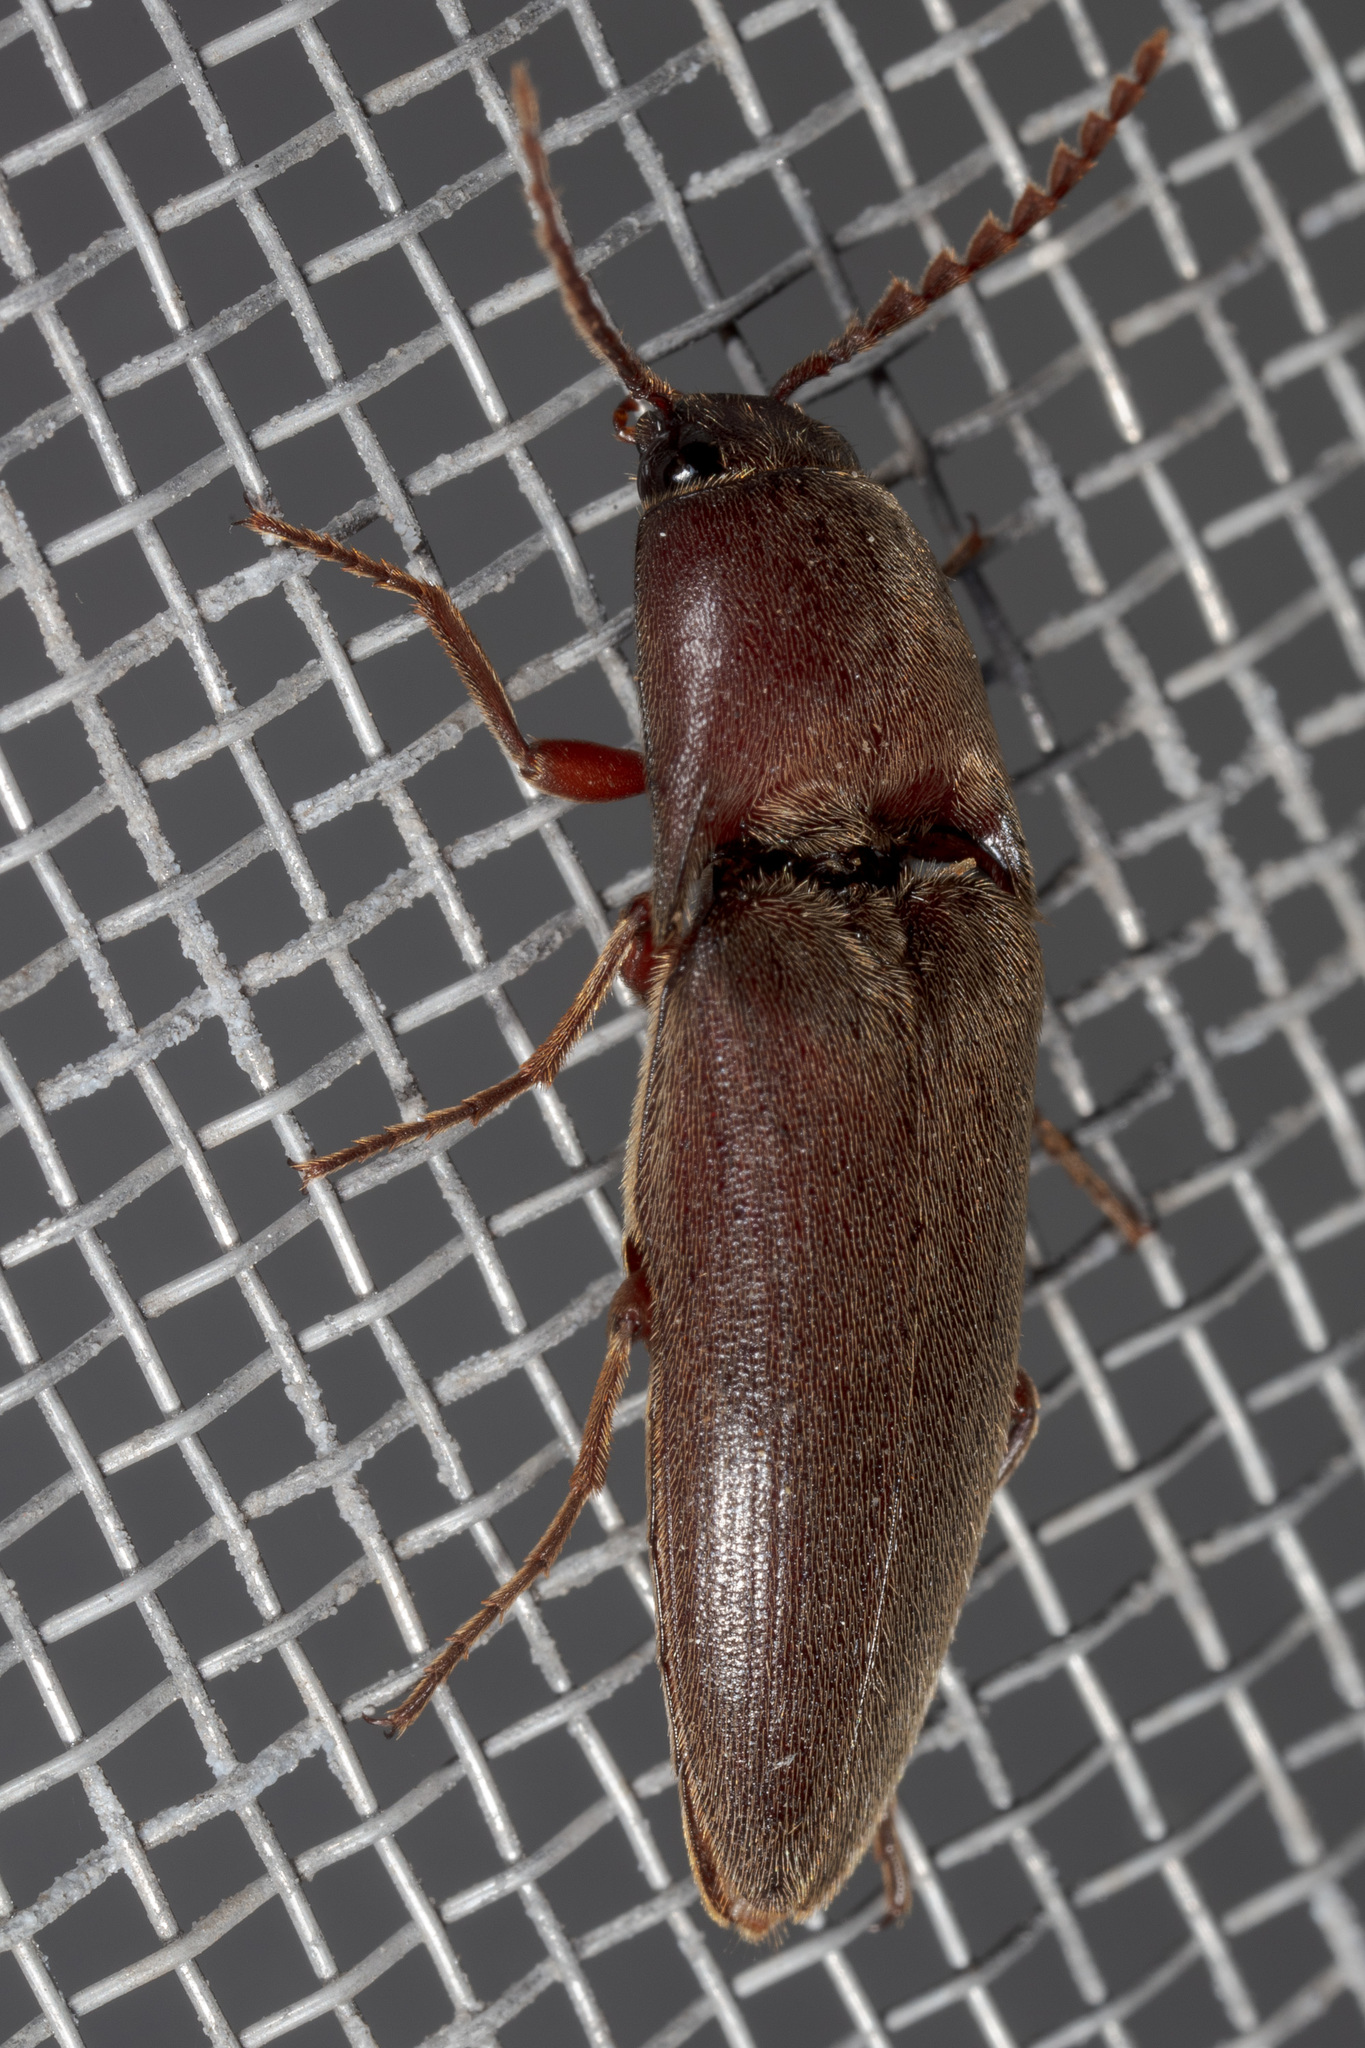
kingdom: Animalia
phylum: Arthropoda
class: Insecta
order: Coleoptera
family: Elateridae
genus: Diplostethus
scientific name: Diplostethus
